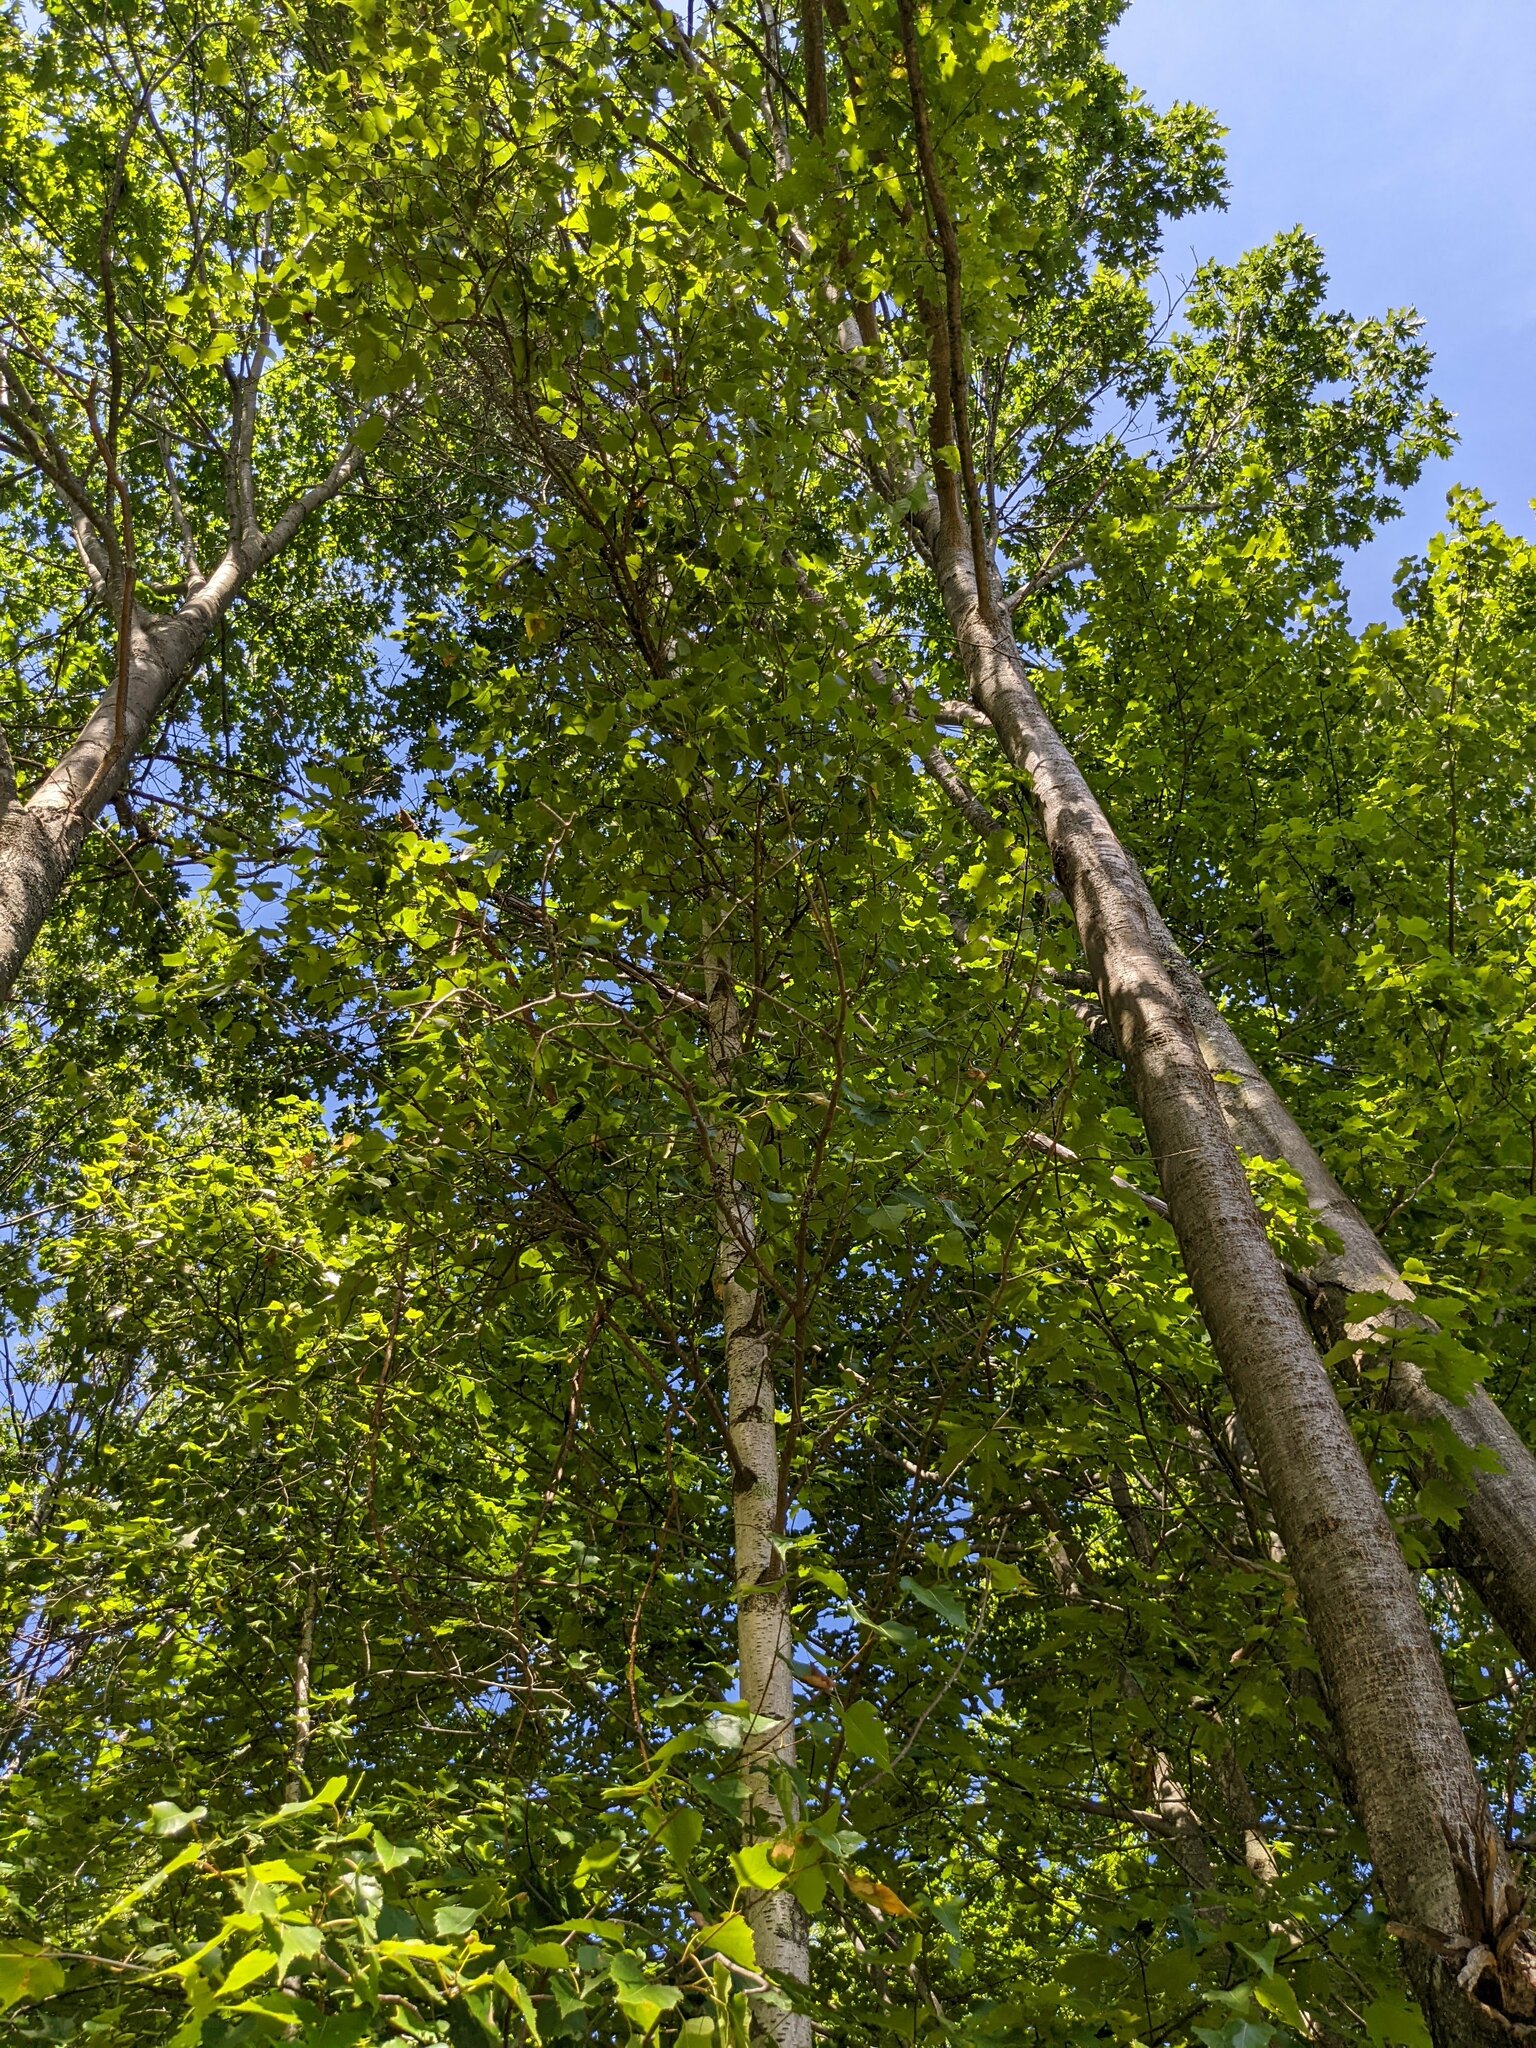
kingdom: Plantae
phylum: Tracheophyta
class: Magnoliopsida
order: Fagales
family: Betulaceae
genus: Betula
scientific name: Betula populifolia
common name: Fire birch
